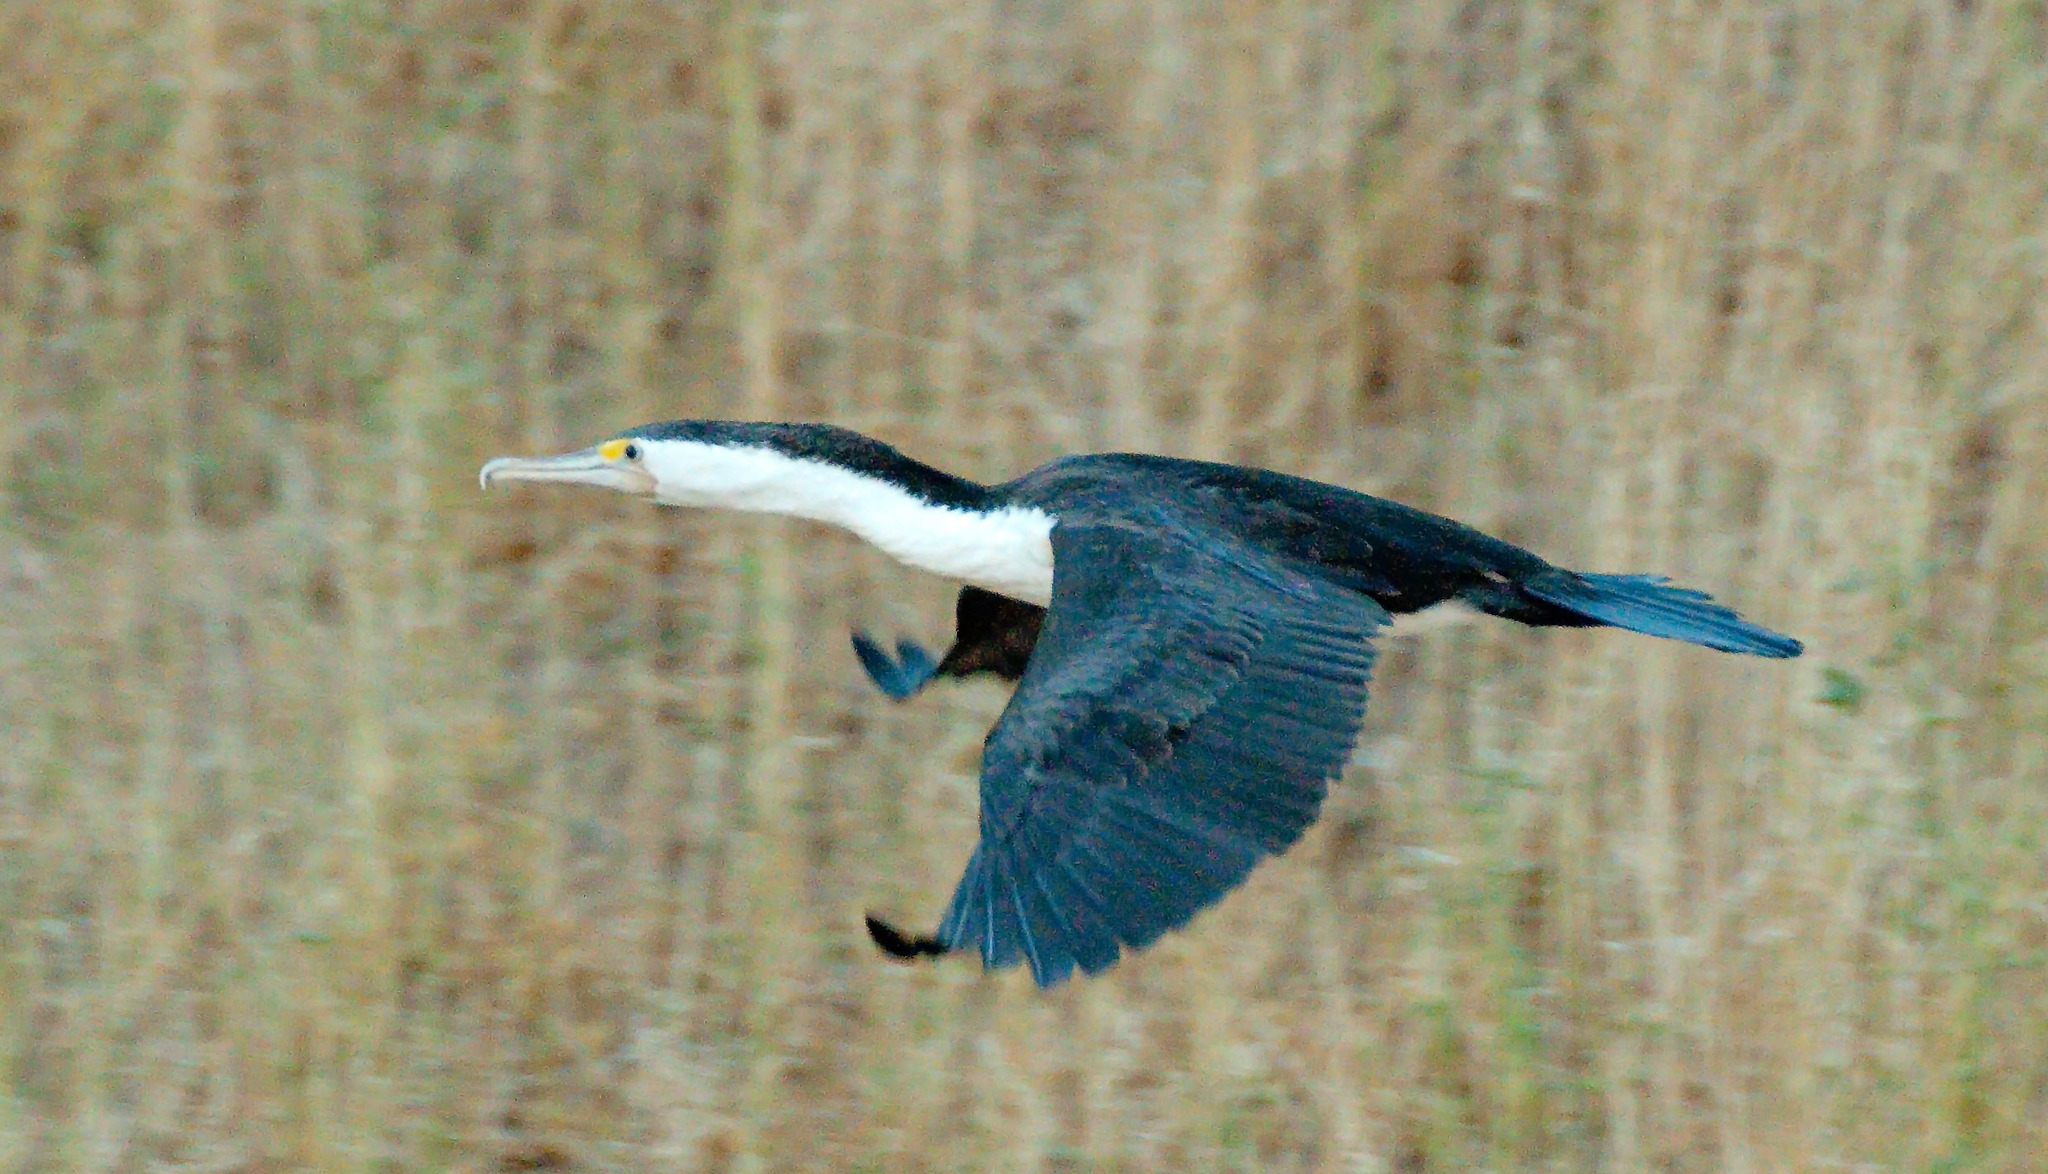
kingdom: Animalia
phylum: Chordata
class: Aves
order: Suliformes
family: Phalacrocoracidae
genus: Phalacrocorax
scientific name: Phalacrocorax varius
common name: Pied cormorant
